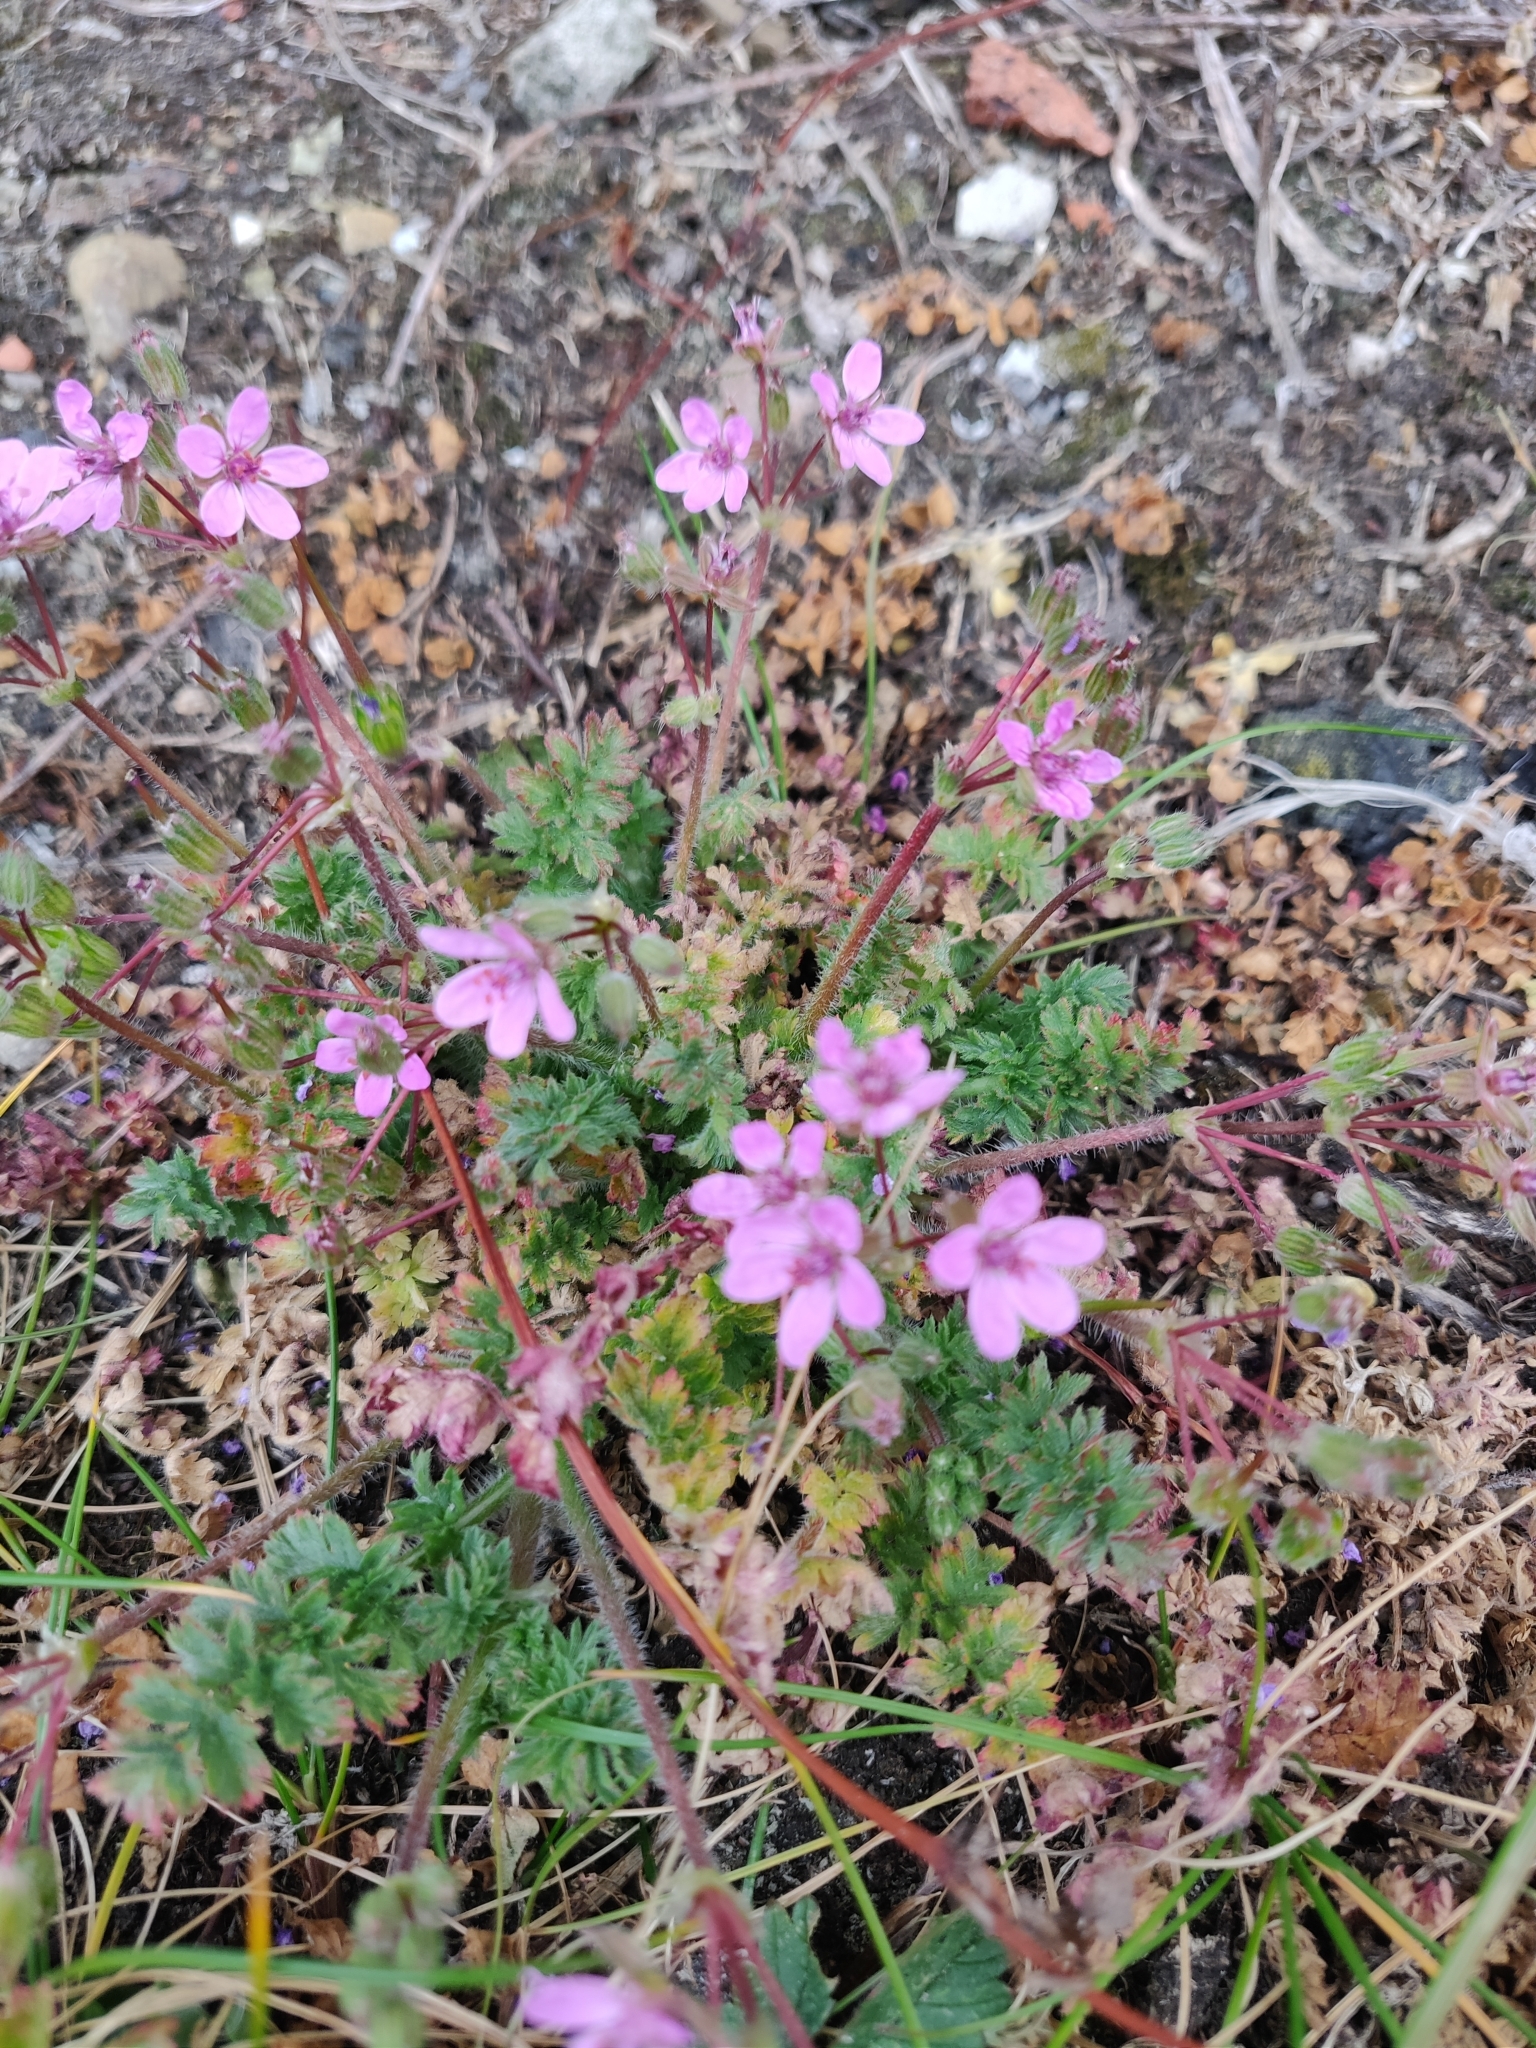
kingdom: Plantae
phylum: Tracheophyta
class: Magnoliopsida
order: Geraniales
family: Geraniaceae
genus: Erodium
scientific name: Erodium cicutarium
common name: Common stork's-bill
